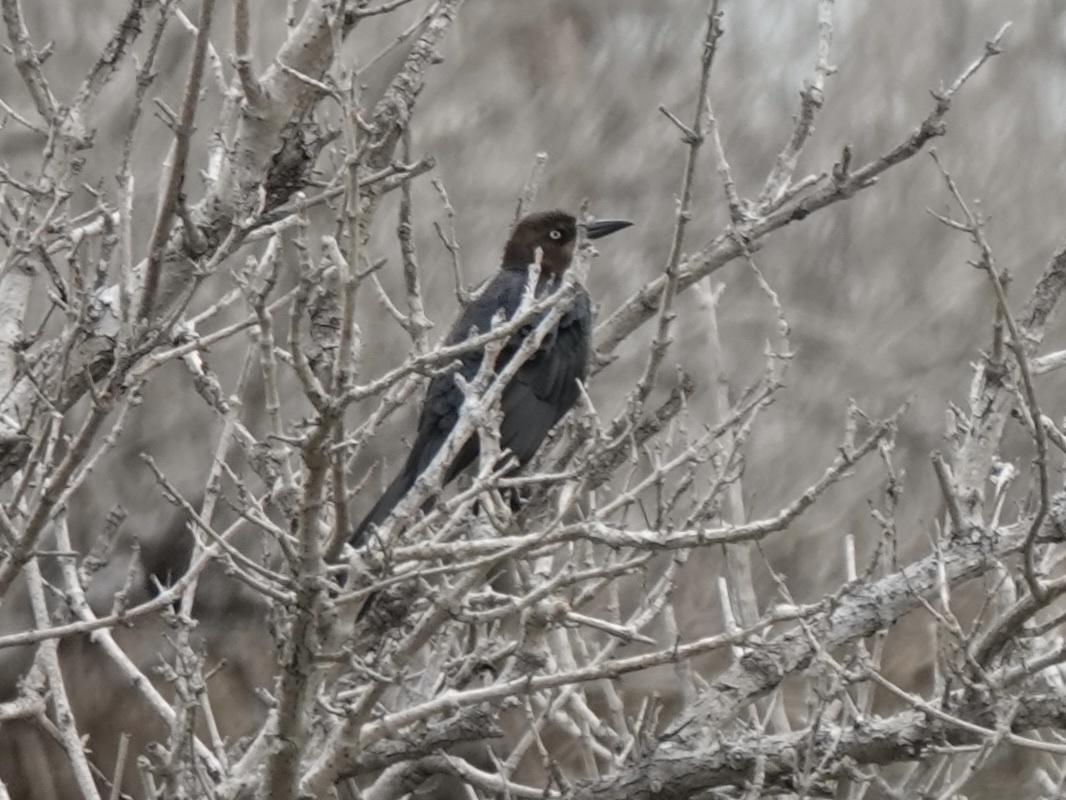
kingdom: Animalia
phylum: Chordata
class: Aves
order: Passeriformes
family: Icteridae
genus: Quiscalus
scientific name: Quiscalus mexicanus
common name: Great-tailed grackle
